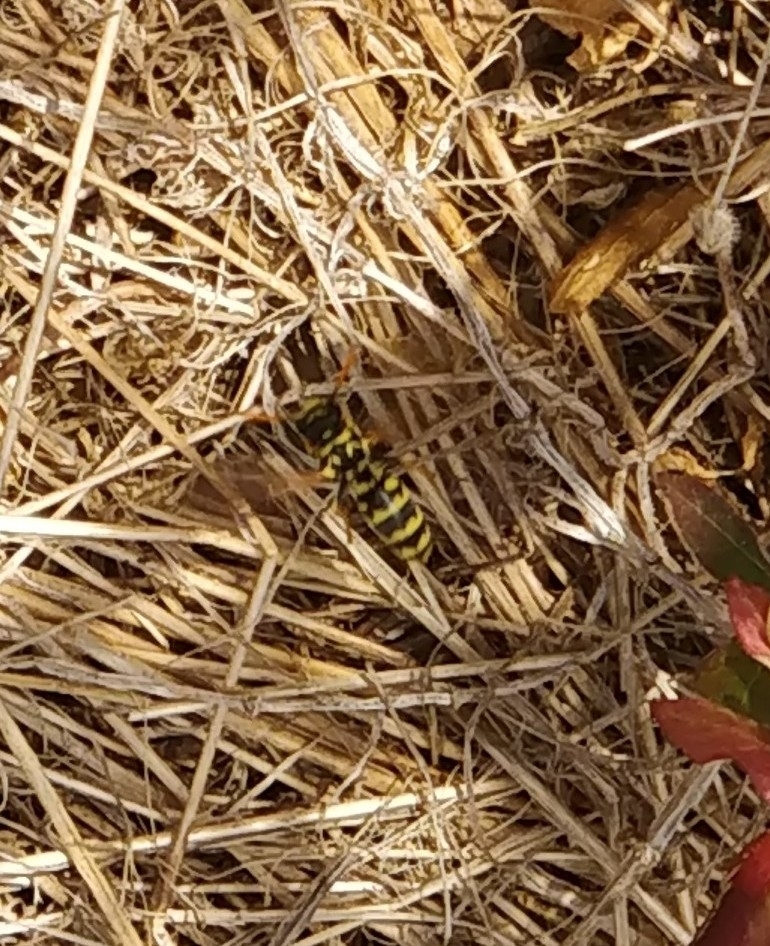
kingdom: Animalia
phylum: Arthropoda
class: Insecta
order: Hymenoptera
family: Eumenidae
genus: Polistes
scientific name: Polistes dominula
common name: Paper wasp
